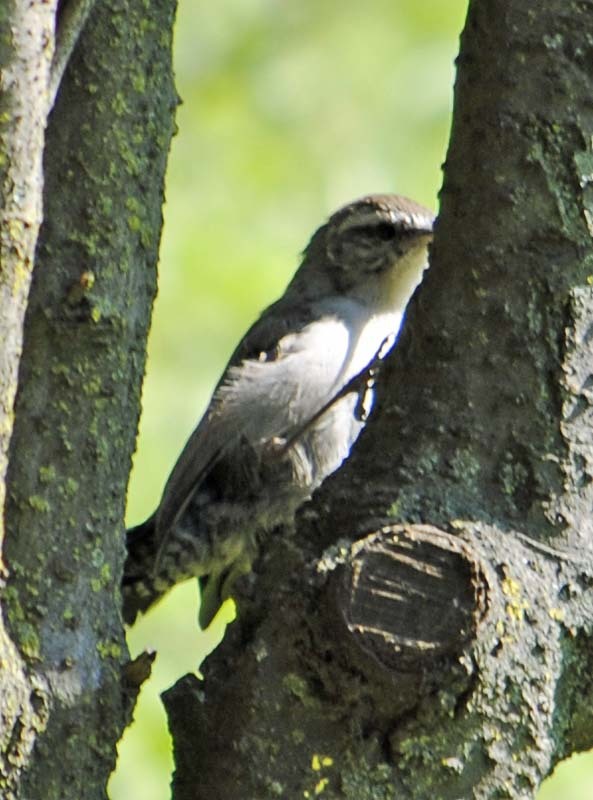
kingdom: Animalia
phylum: Chordata
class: Aves
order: Passeriformes
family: Troglodytidae
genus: Thryomanes
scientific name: Thryomanes bewickii
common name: Bewick's wren
